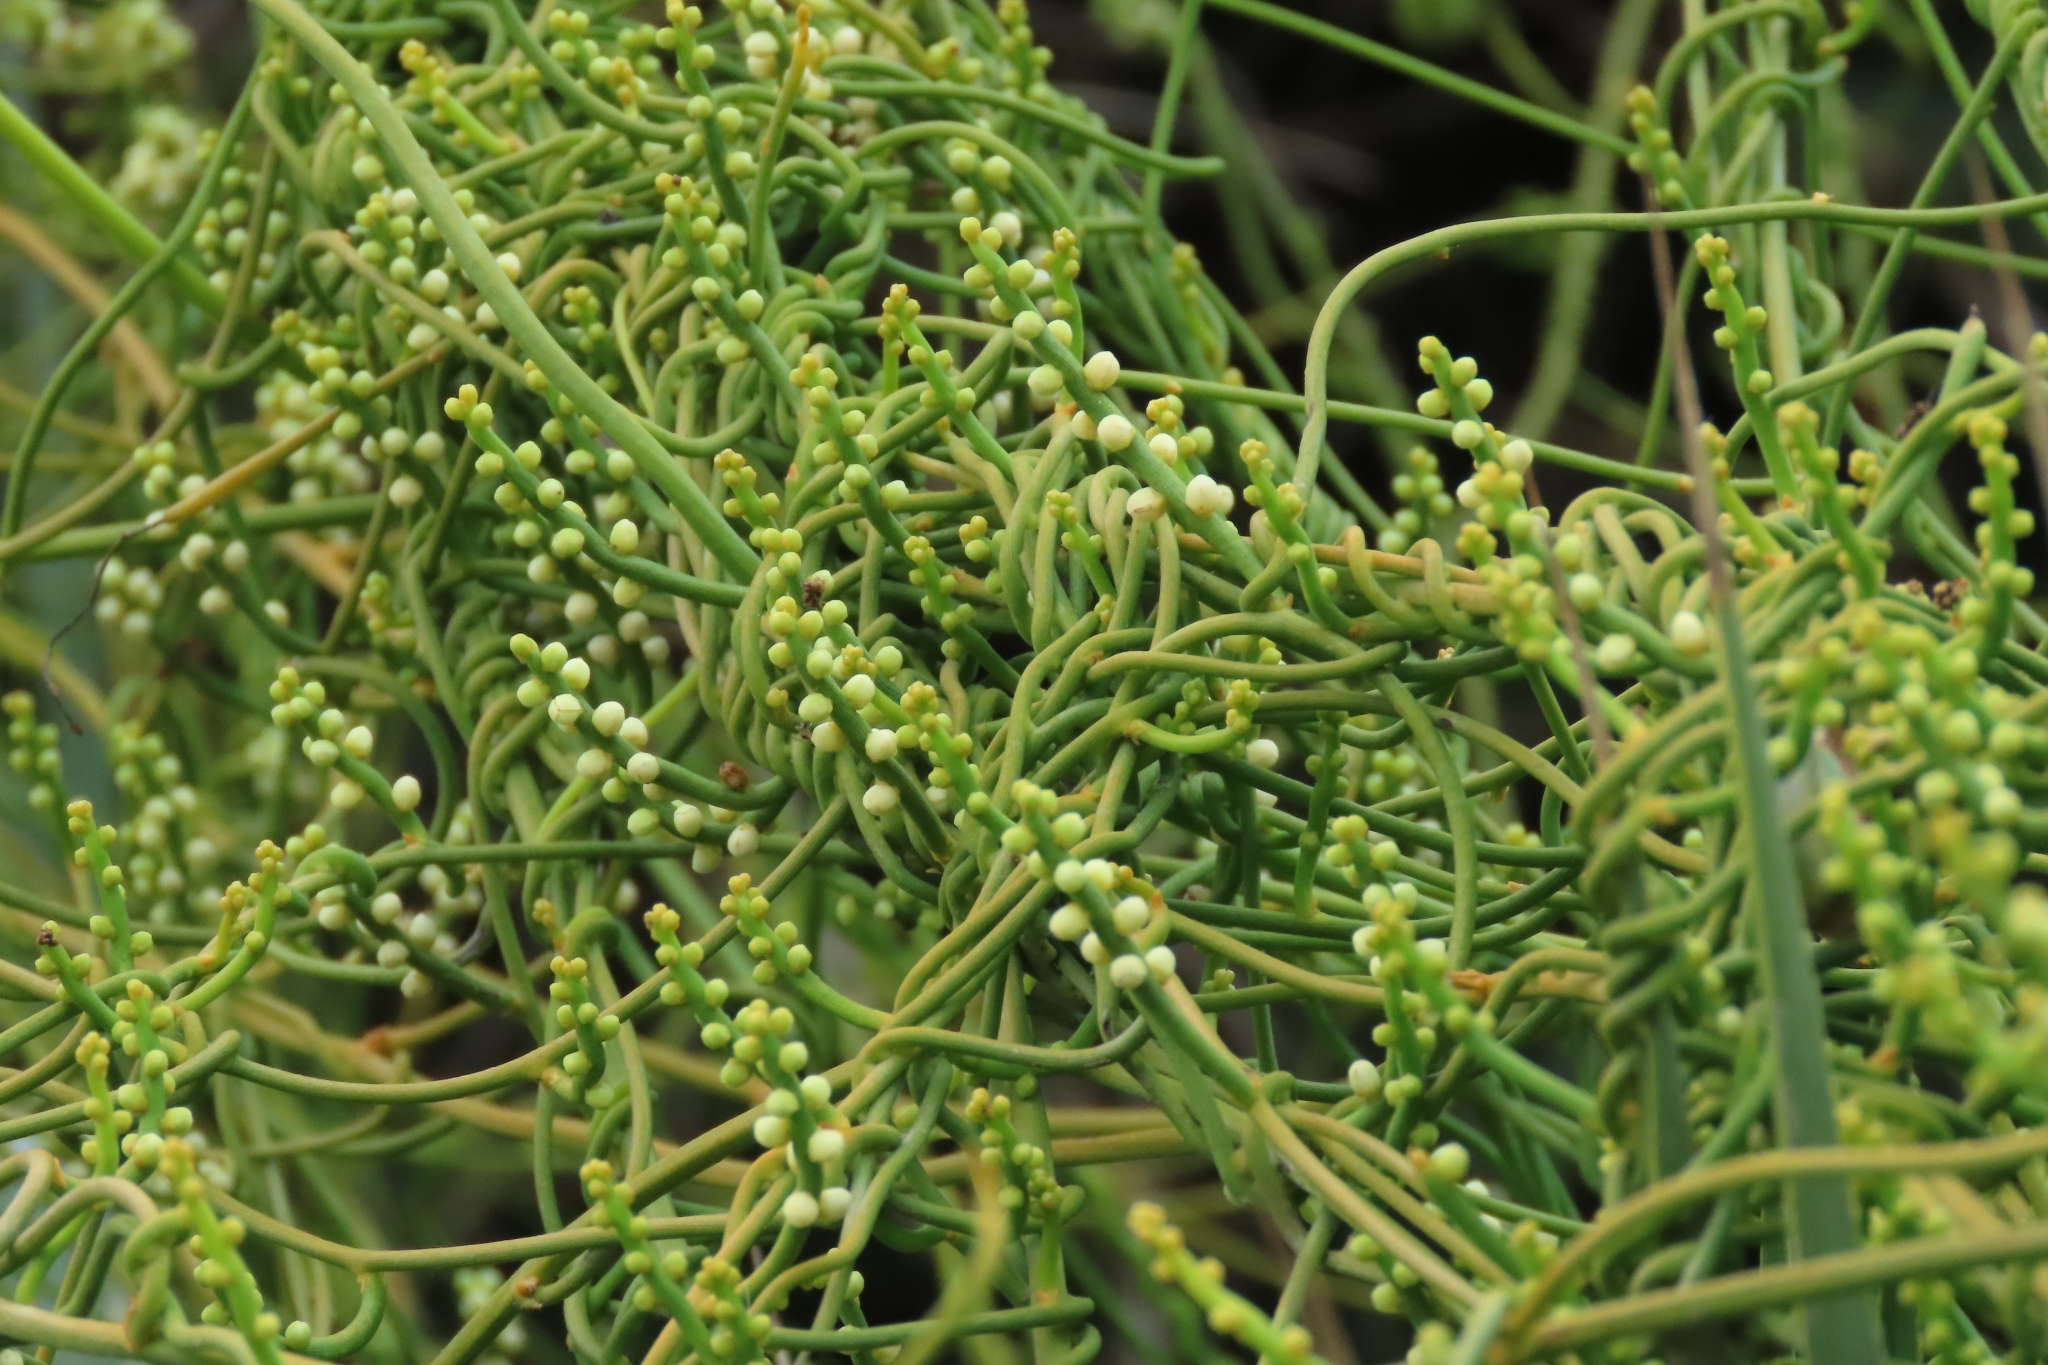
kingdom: Plantae
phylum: Tracheophyta
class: Magnoliopsida
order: Laurales
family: Lauraceae
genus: Cassytha
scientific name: Cassytha filiformis
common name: Dodder-laurel
